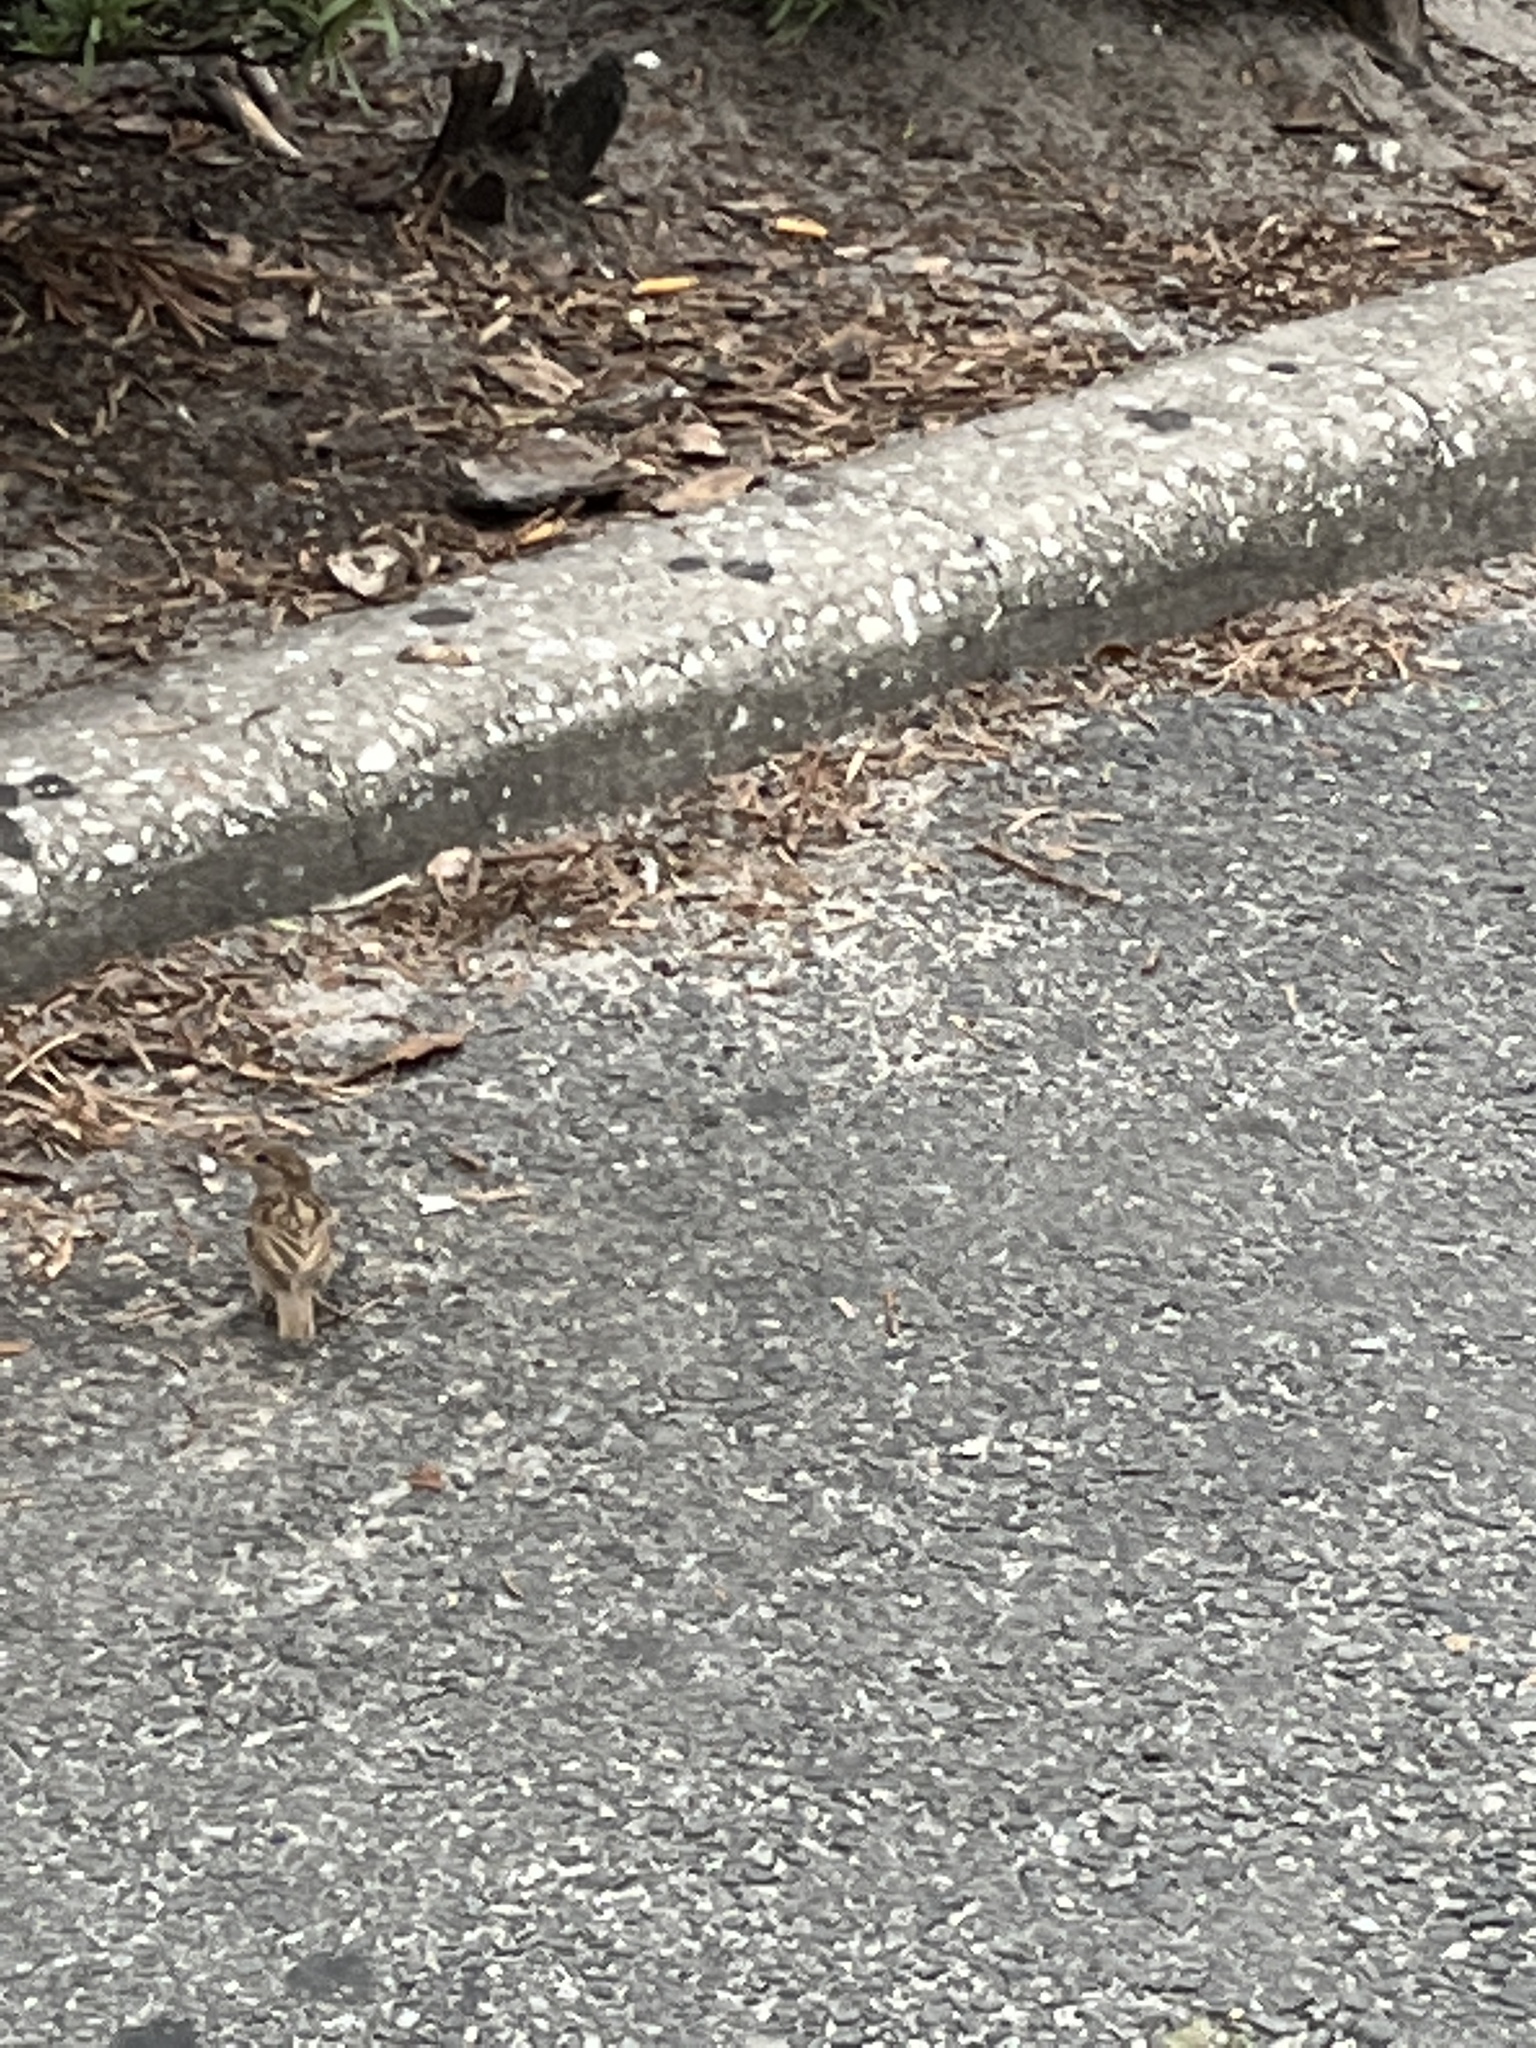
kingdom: Animalia
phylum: Chordata
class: Aves
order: Passeriformes
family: Passeridae
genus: Passer
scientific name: Passer domesticus
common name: House sparrow
